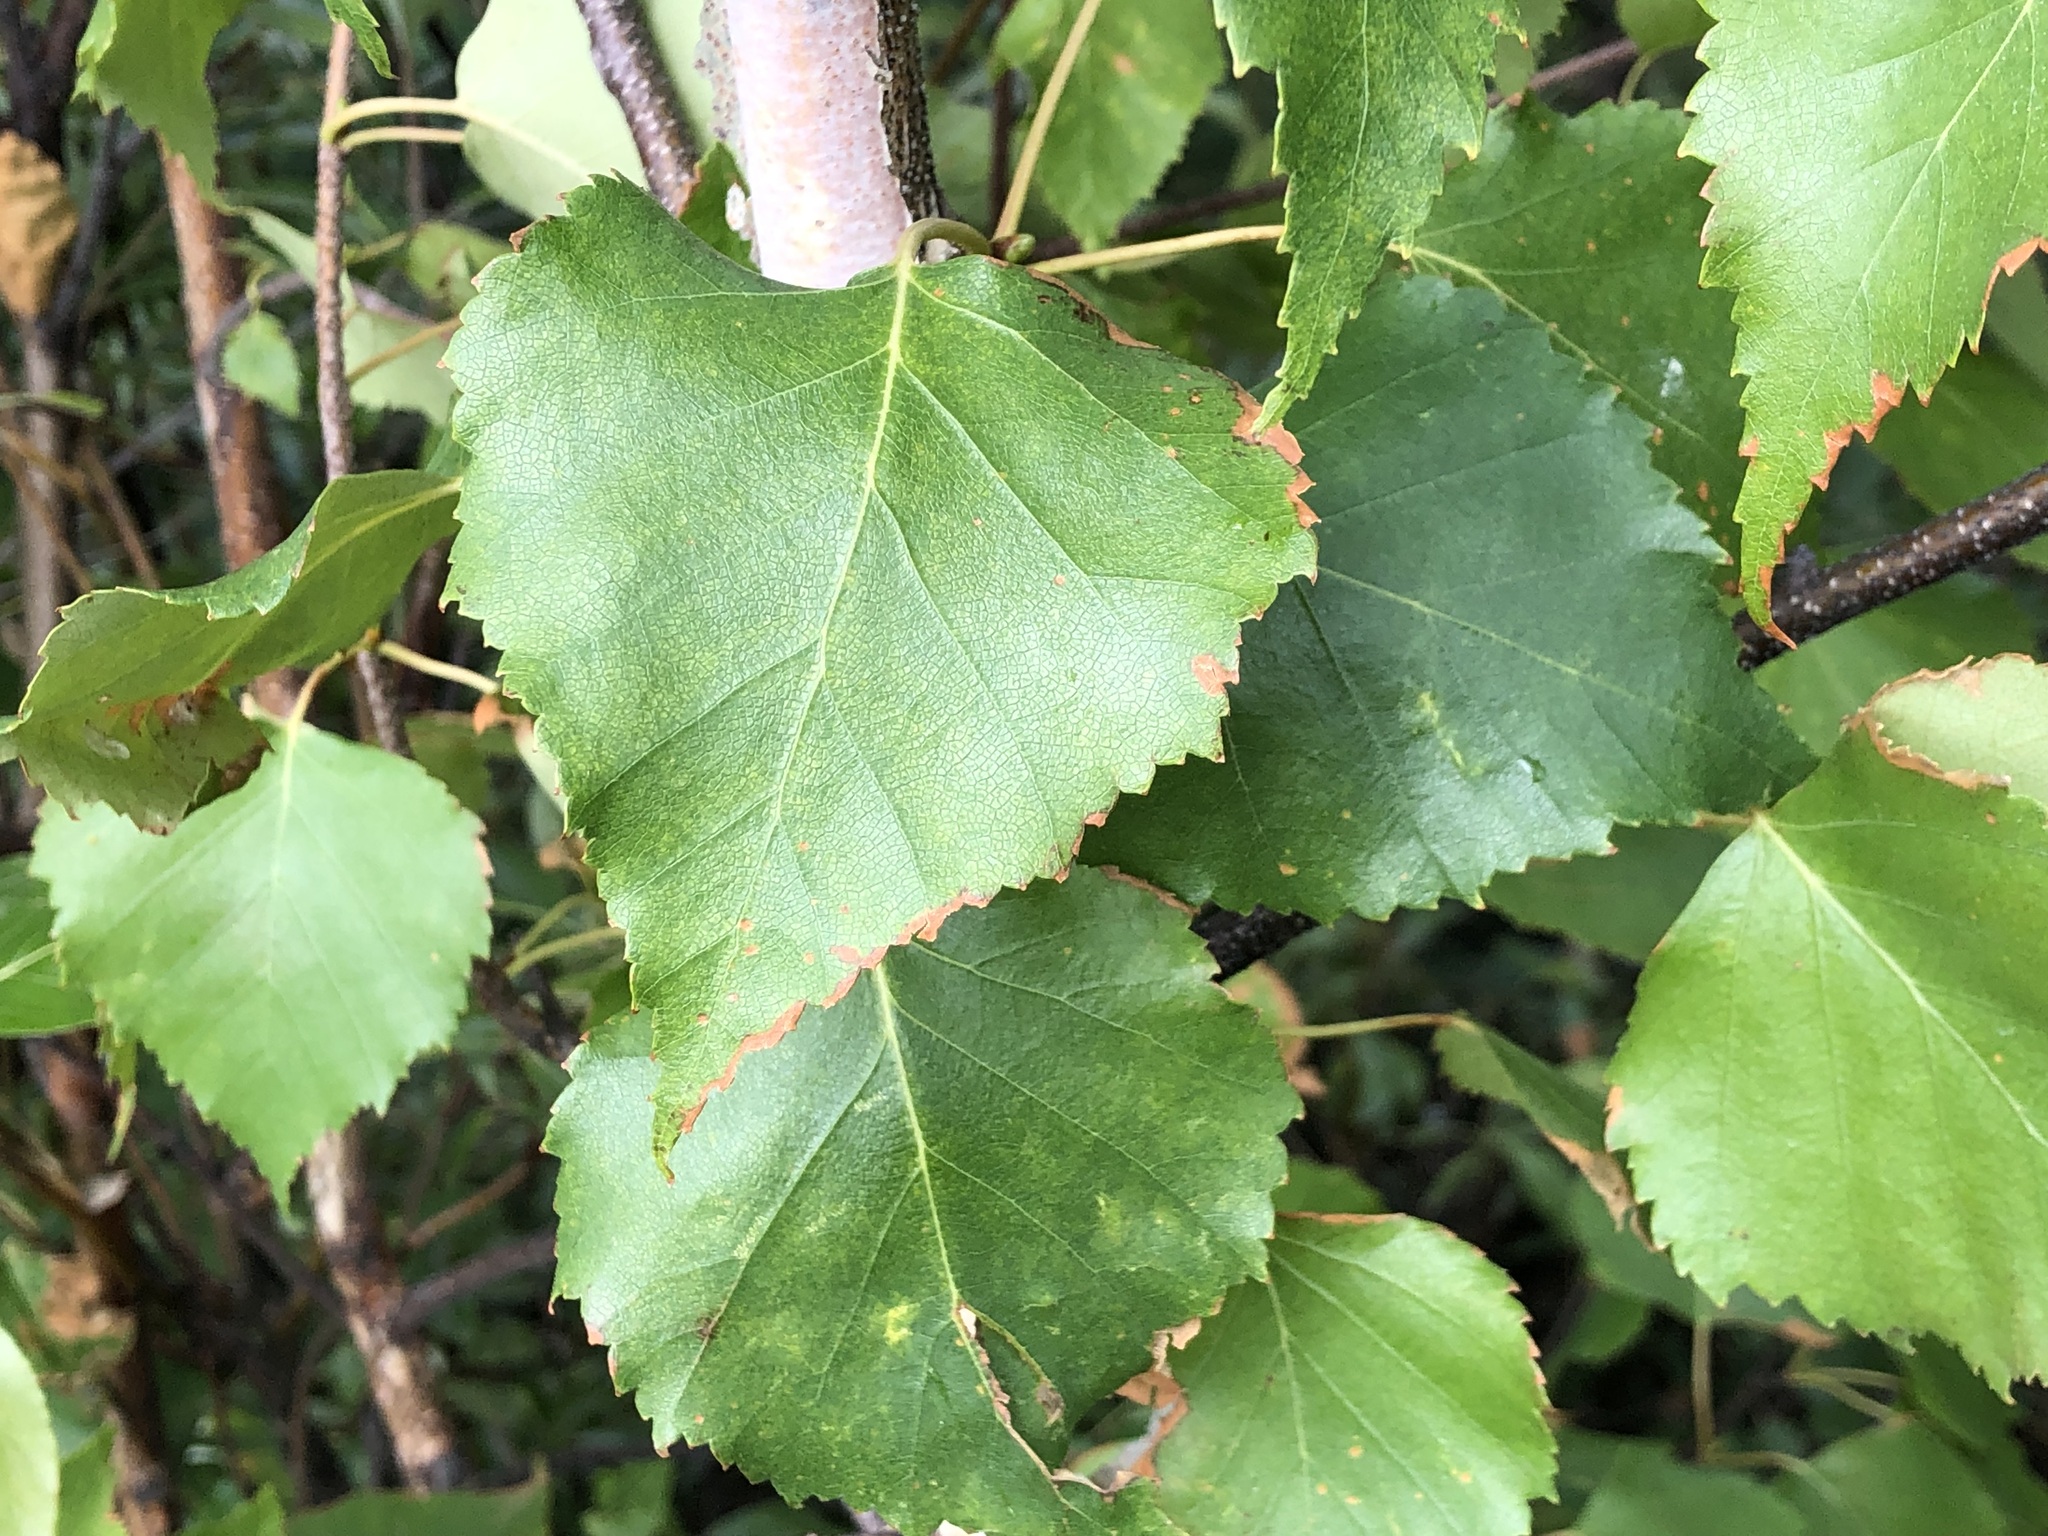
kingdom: Plantae
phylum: Tracheophyta
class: Magnoliopsida
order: Fagales
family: Betulaceae
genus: Betula
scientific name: Betula pendula
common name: Silver birch
